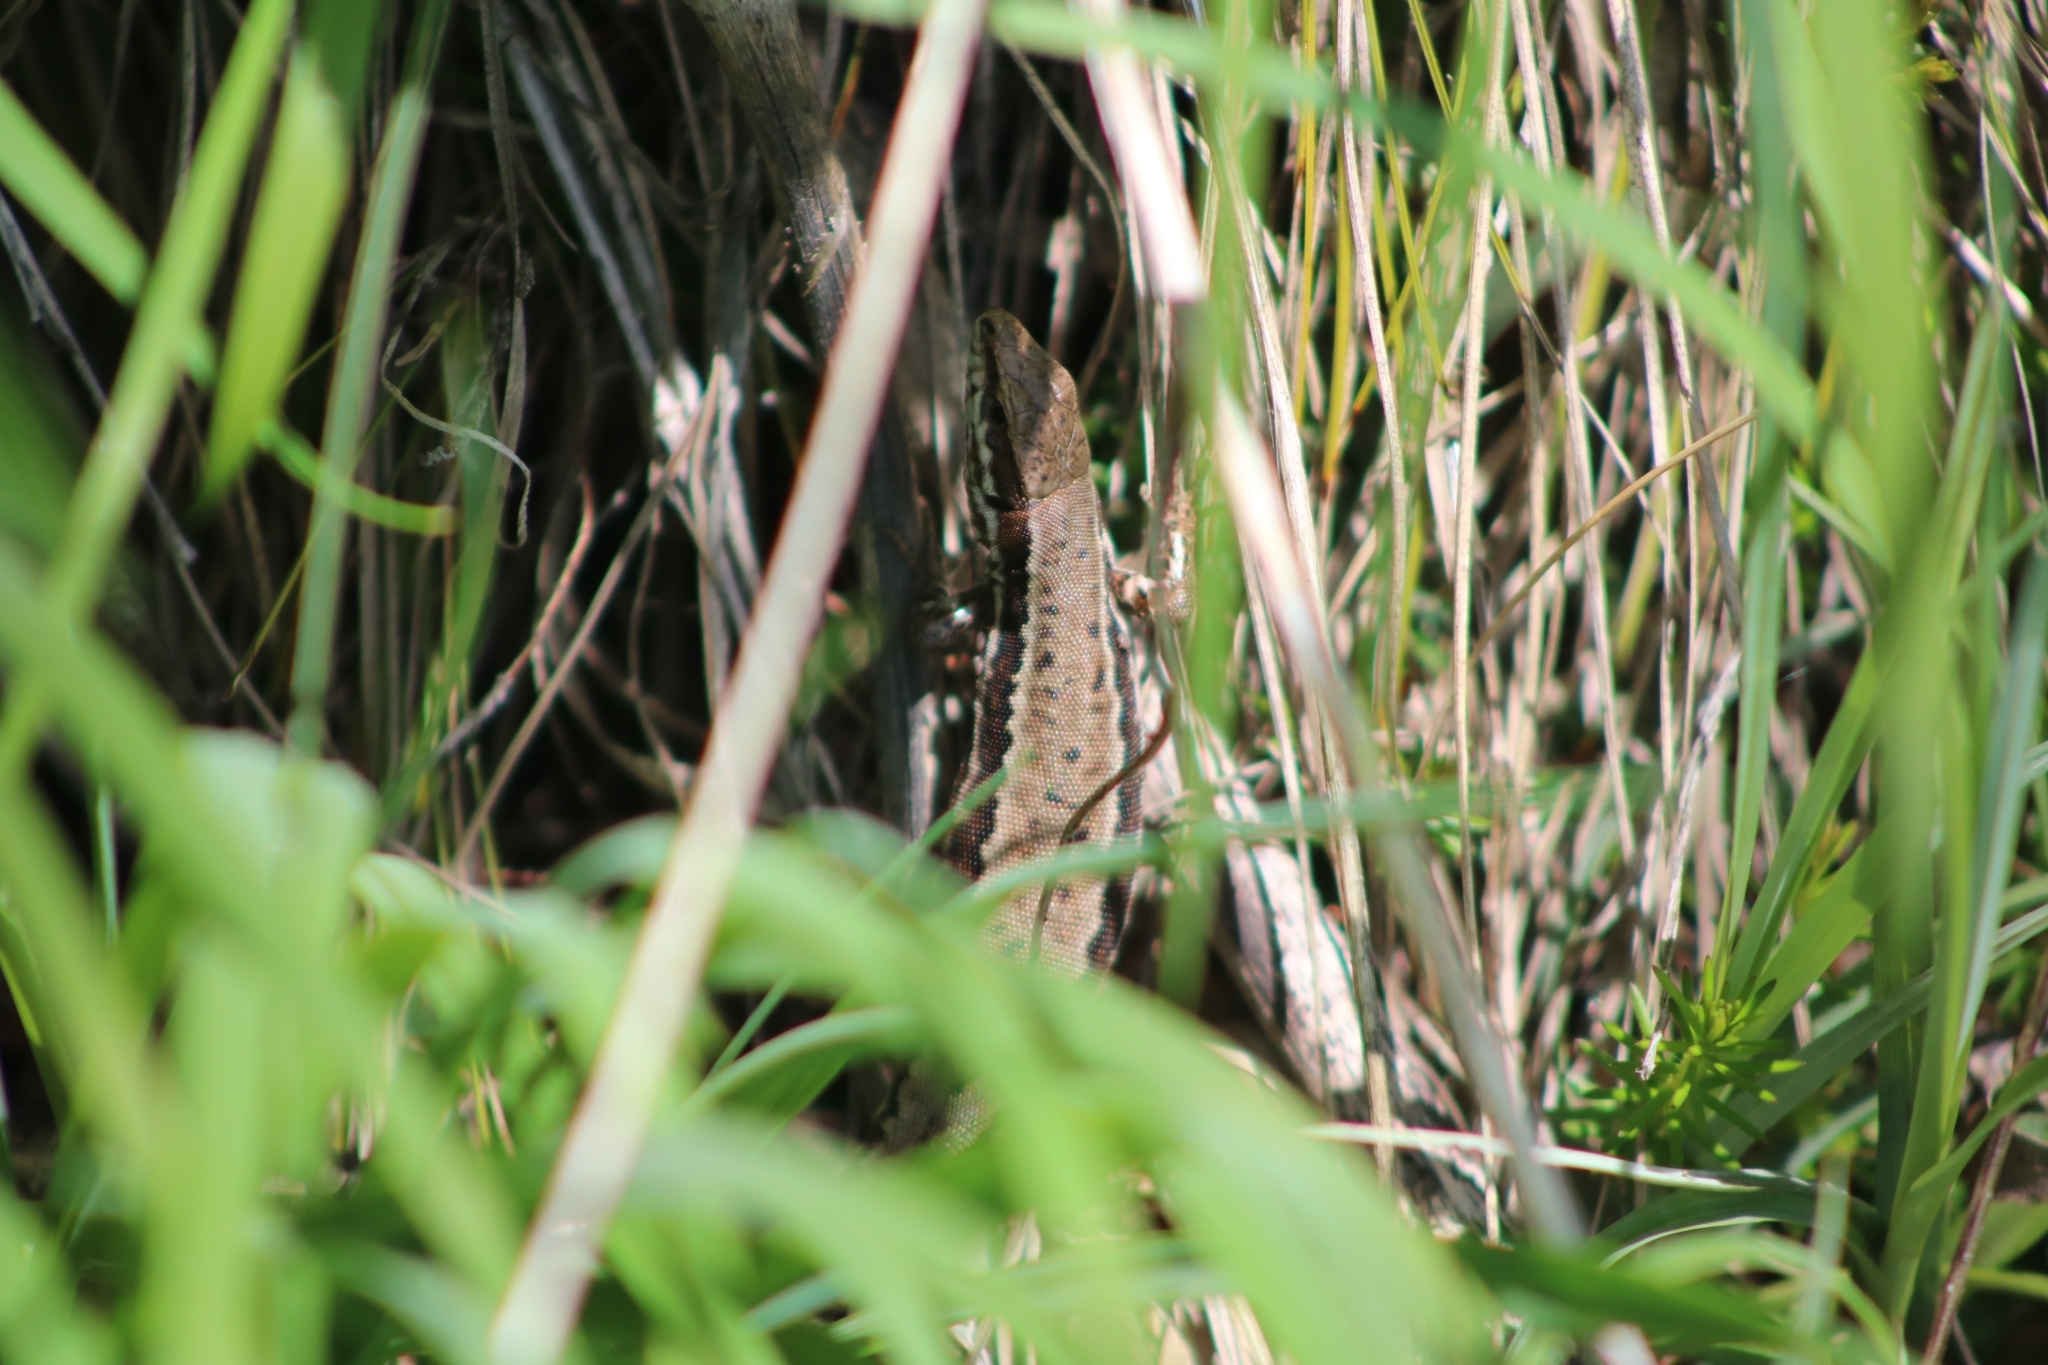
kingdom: Animalia
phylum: Chordata
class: Squamata
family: Lacertidae
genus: Podarcis
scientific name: Podarcis muralis
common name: Common wall lizard
